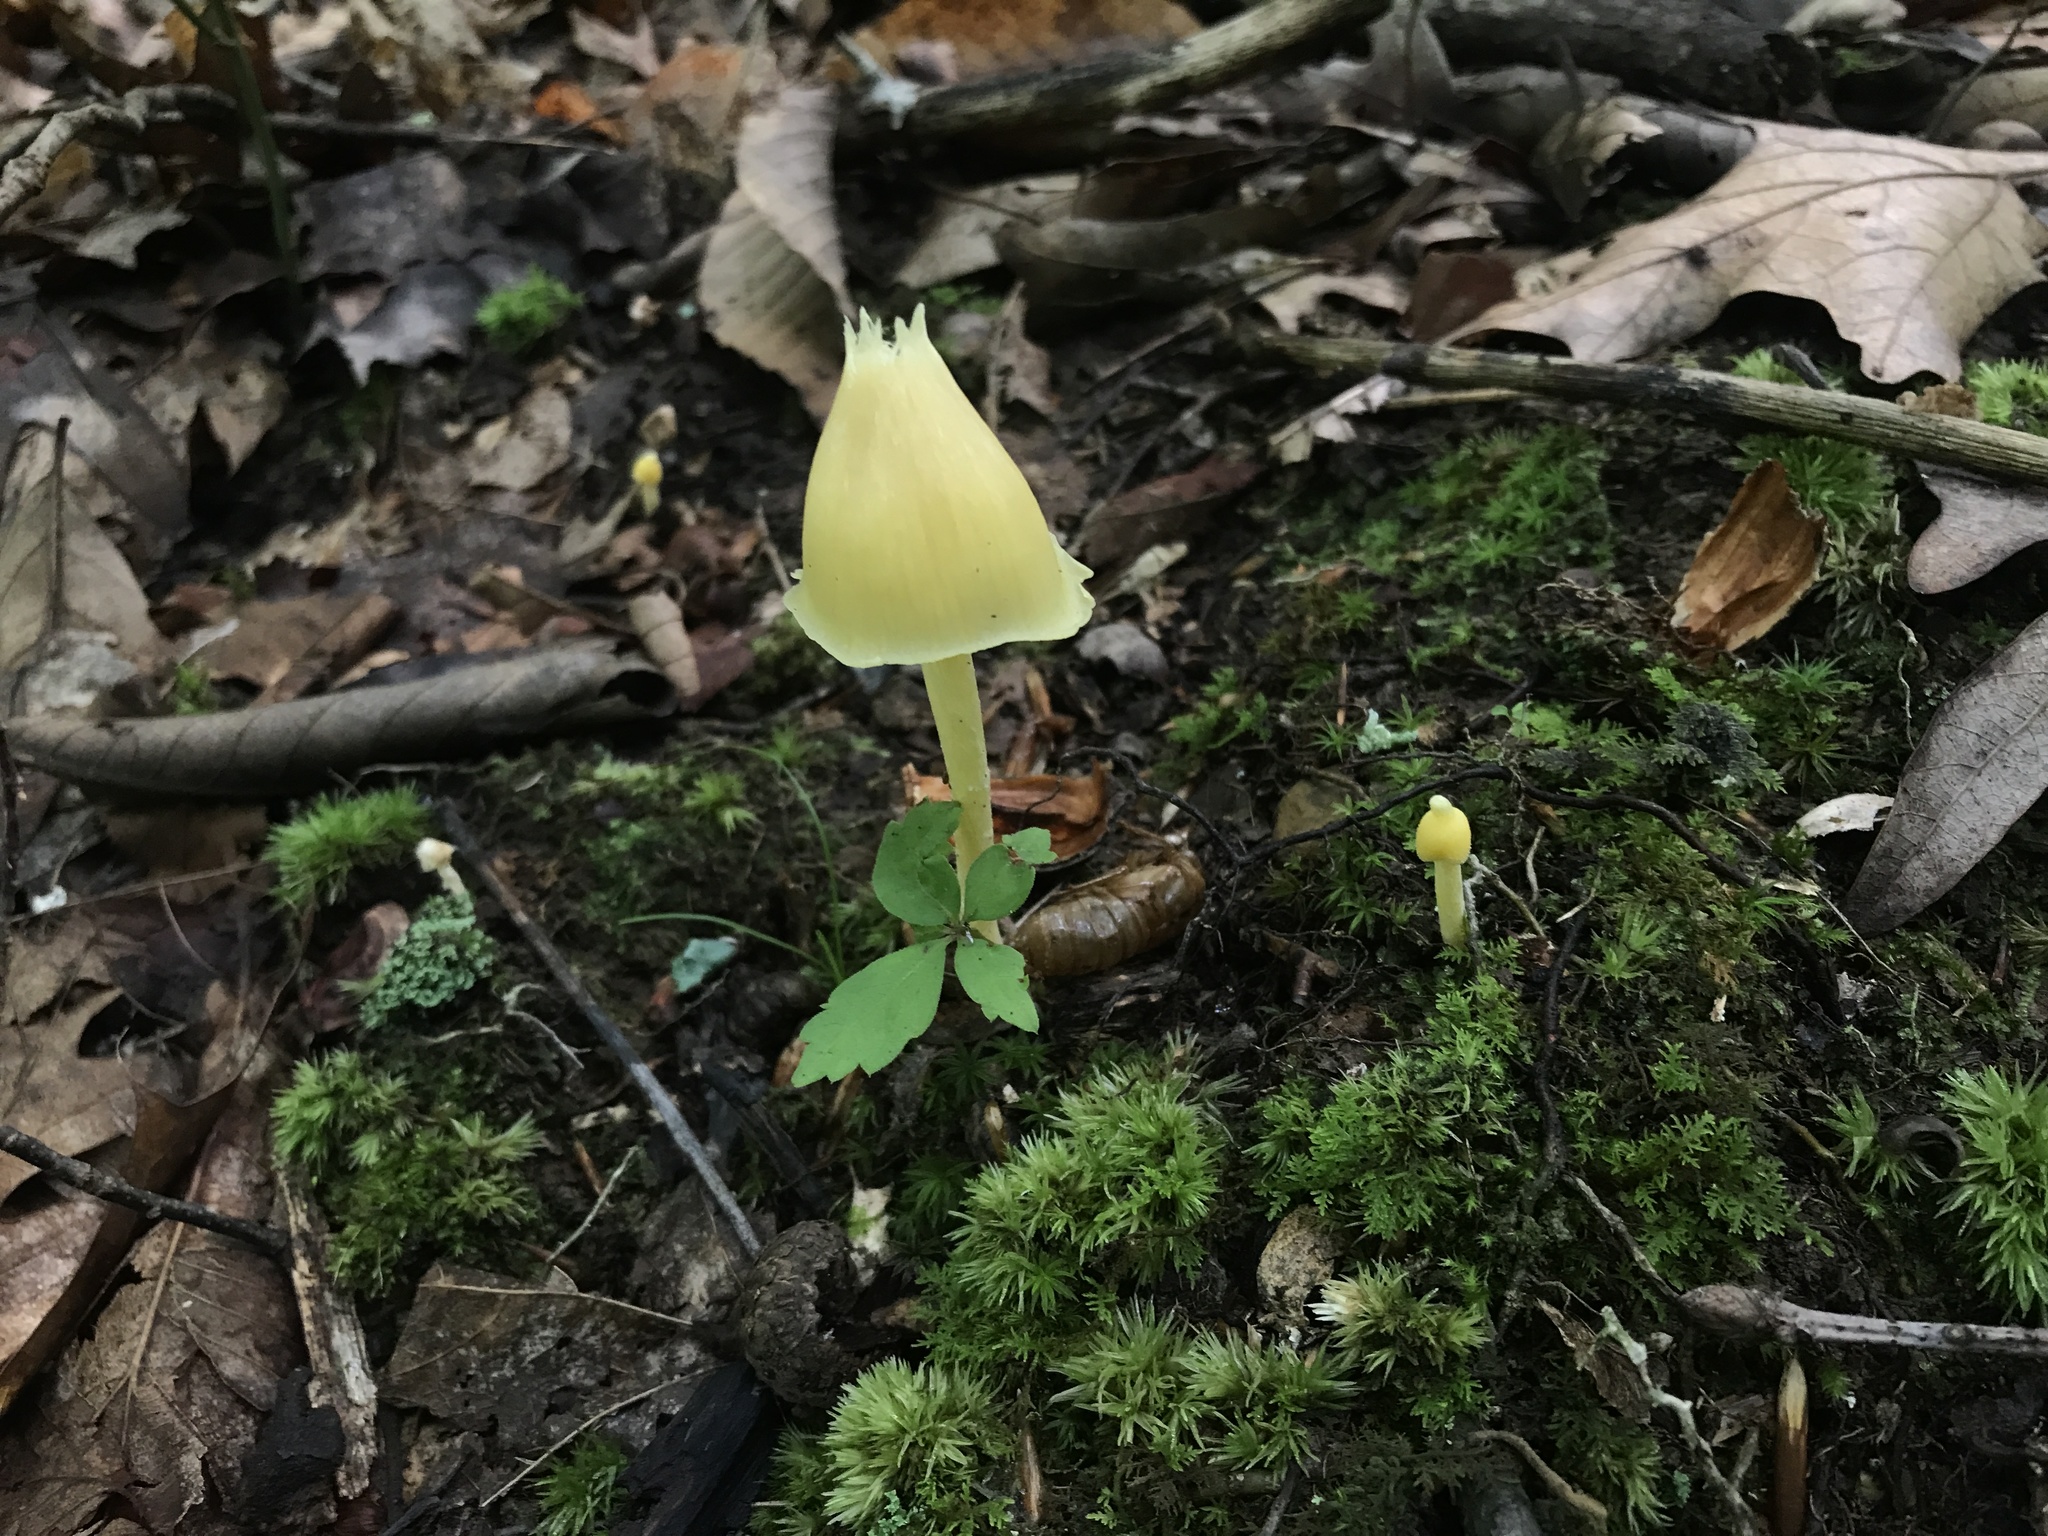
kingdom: Fungi
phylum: Basidiomycota
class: Agaricomycetes
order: Agaricales
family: Entolomataceae
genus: Entoloma
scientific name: Entoloma murrayi
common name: Yellow unicorn entoloma
